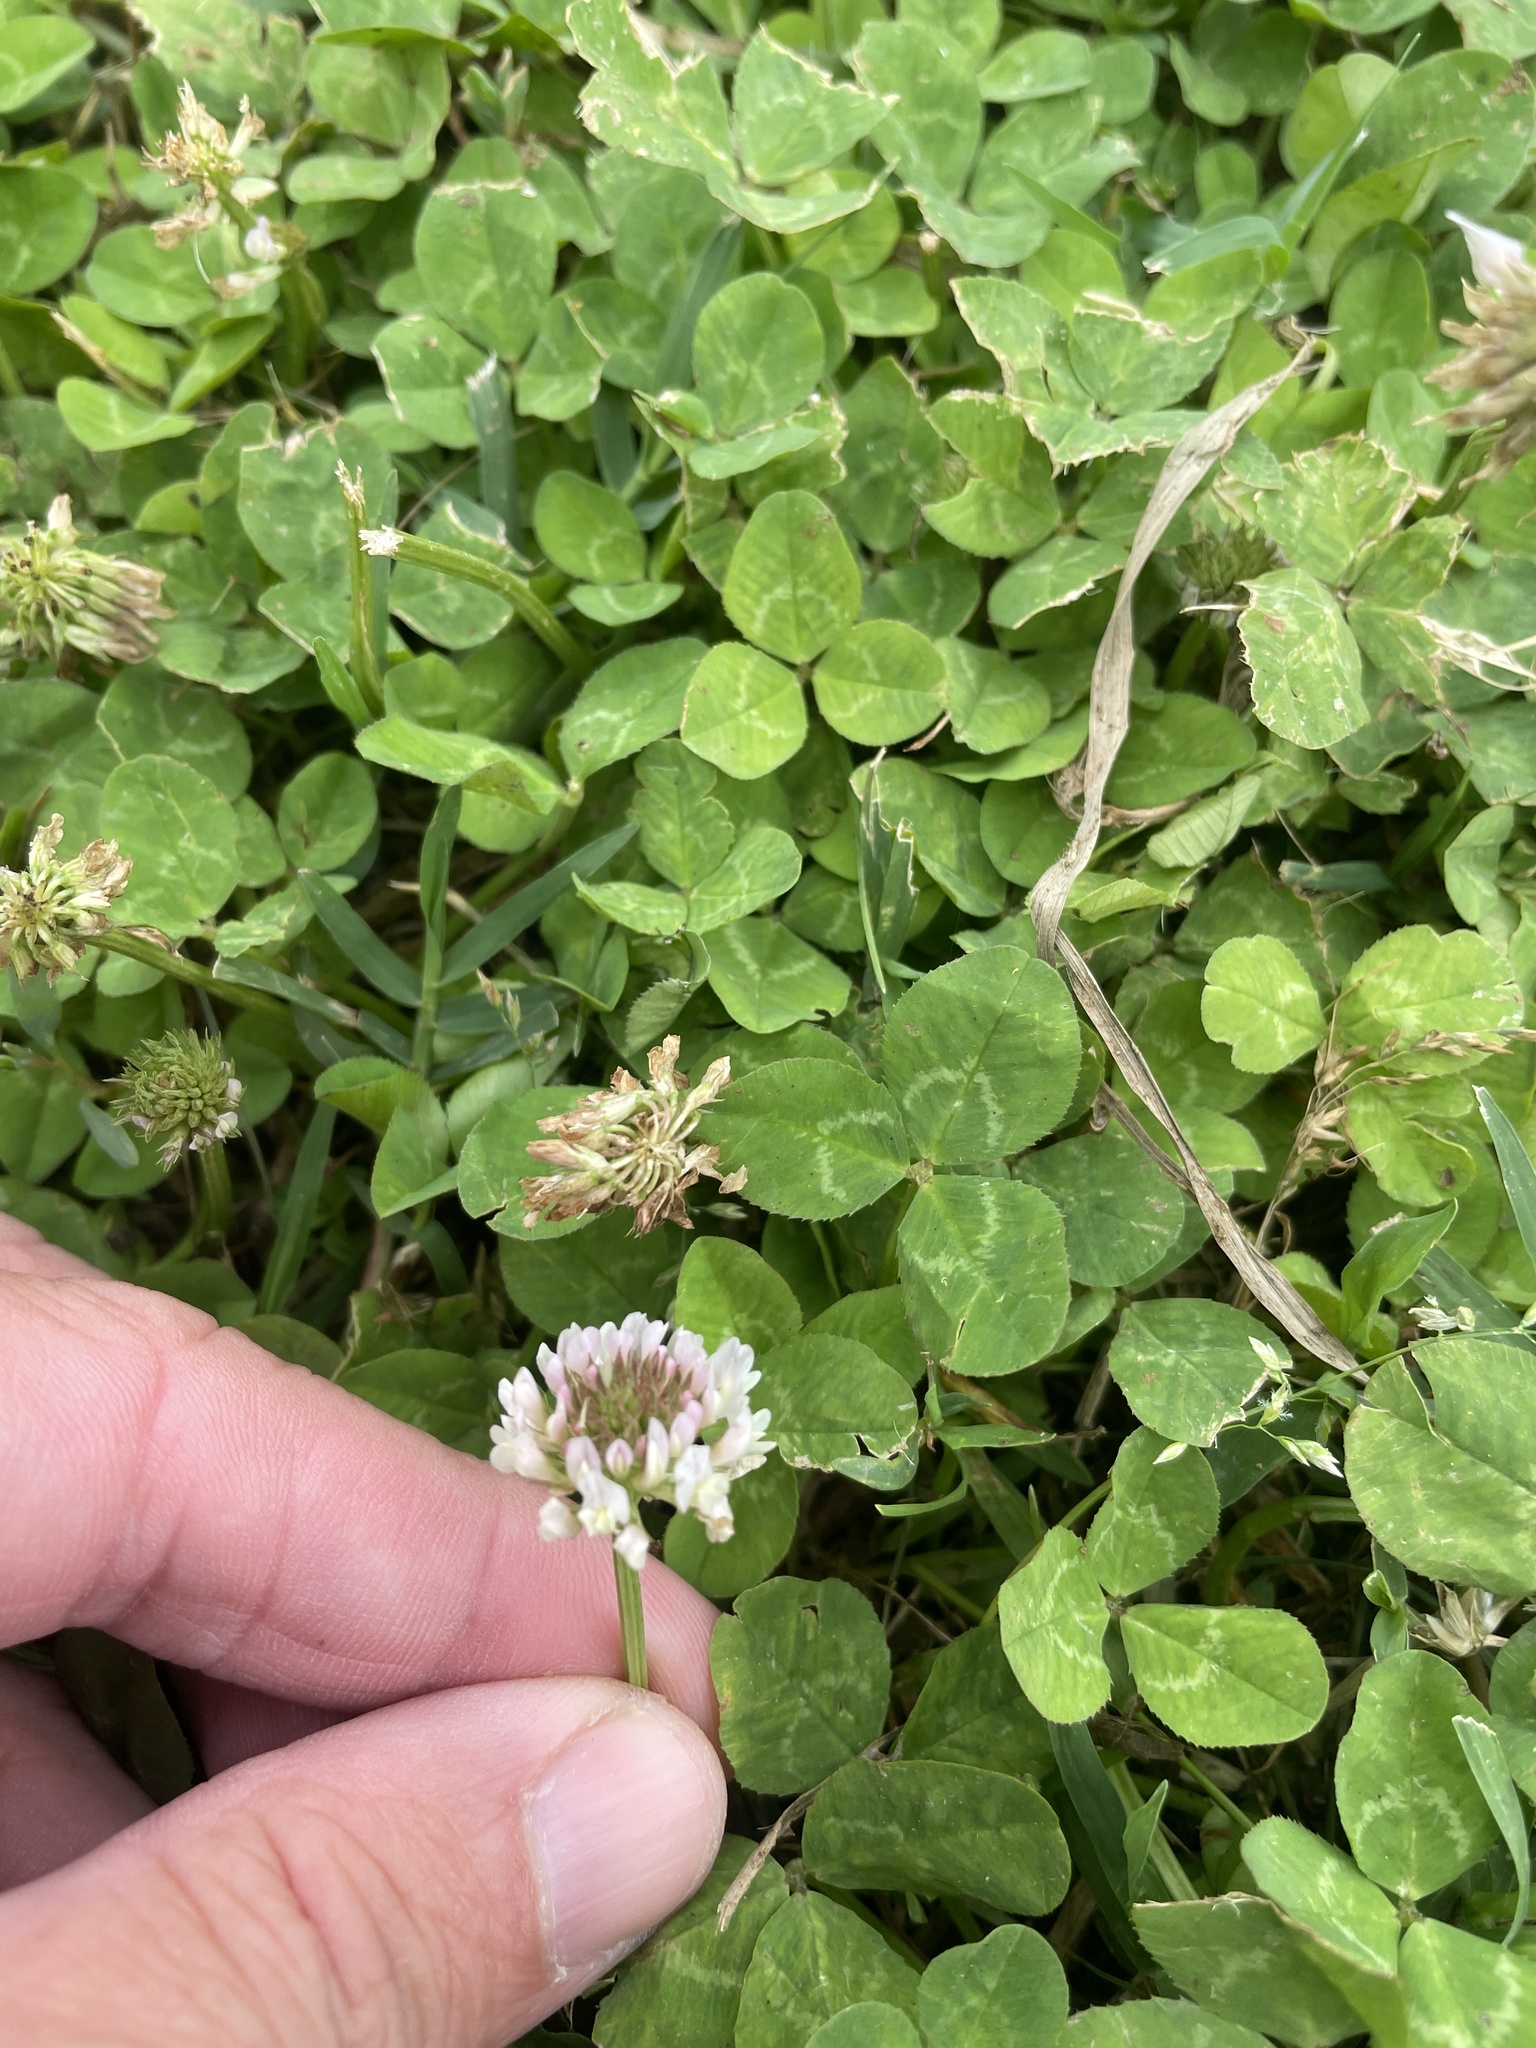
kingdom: Plantae
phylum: Tracheophyta
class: Magnoliopsida
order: Fabales
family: Fabaceae
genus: Trifolium
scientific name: Trifolium repens
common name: White clover
